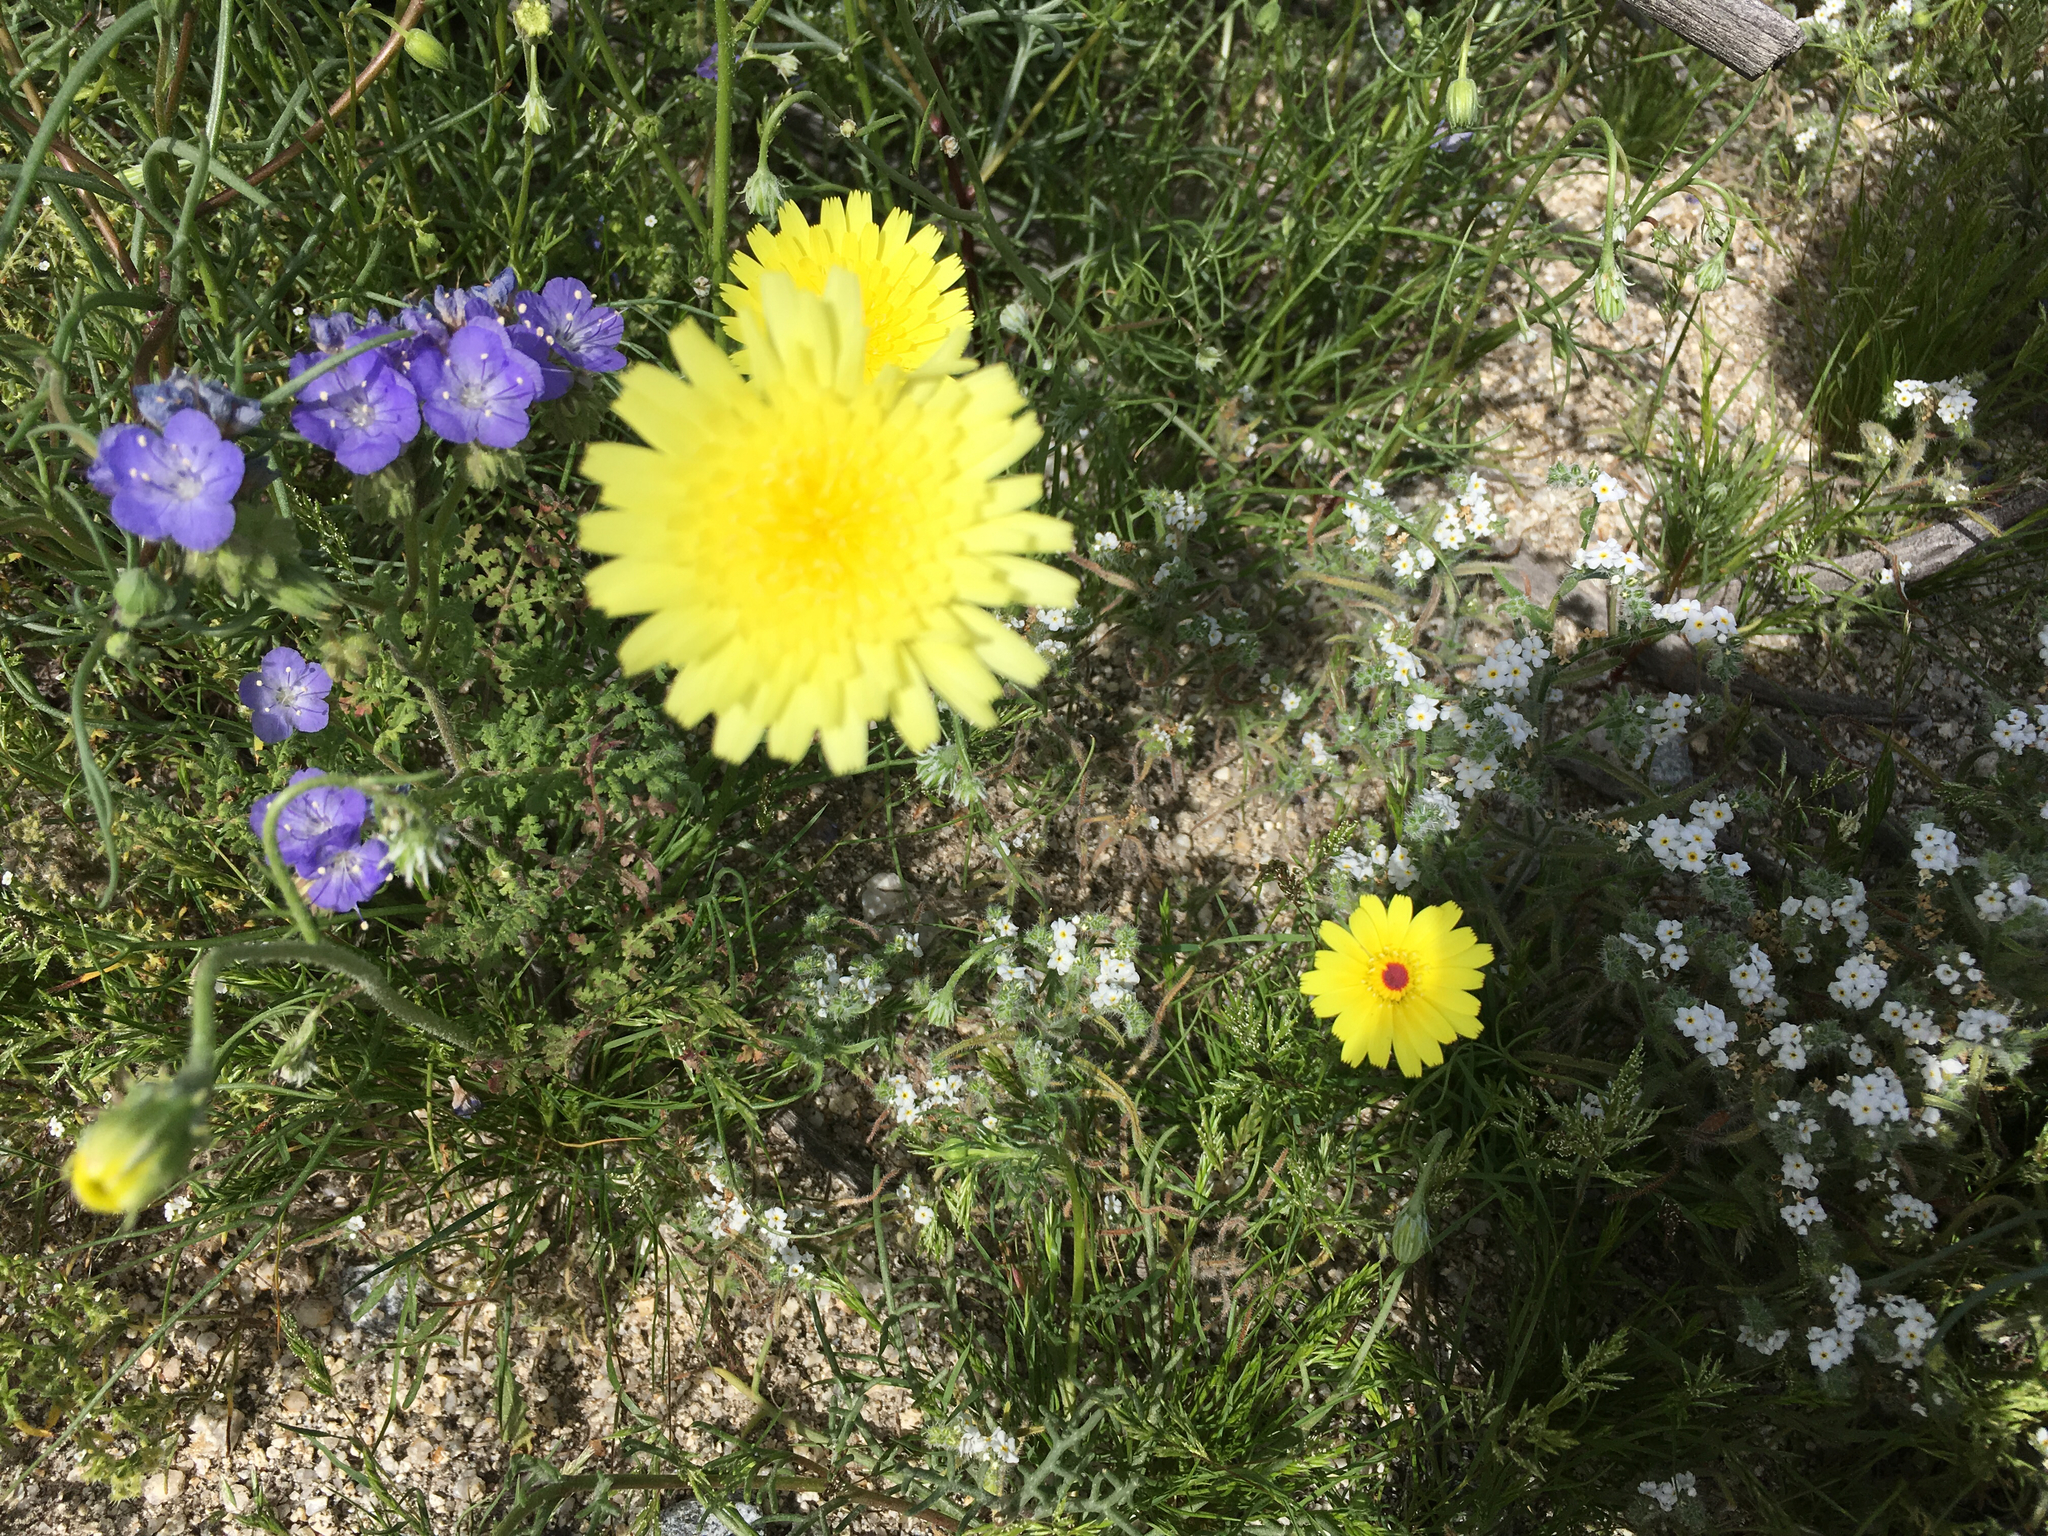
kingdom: Plantae
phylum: Tracheophyta
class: Magnoliopsida
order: Asterales
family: Asteraceae
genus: Malacothrix
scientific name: Malacothrix glabrata
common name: Smooth desert-dandelion
